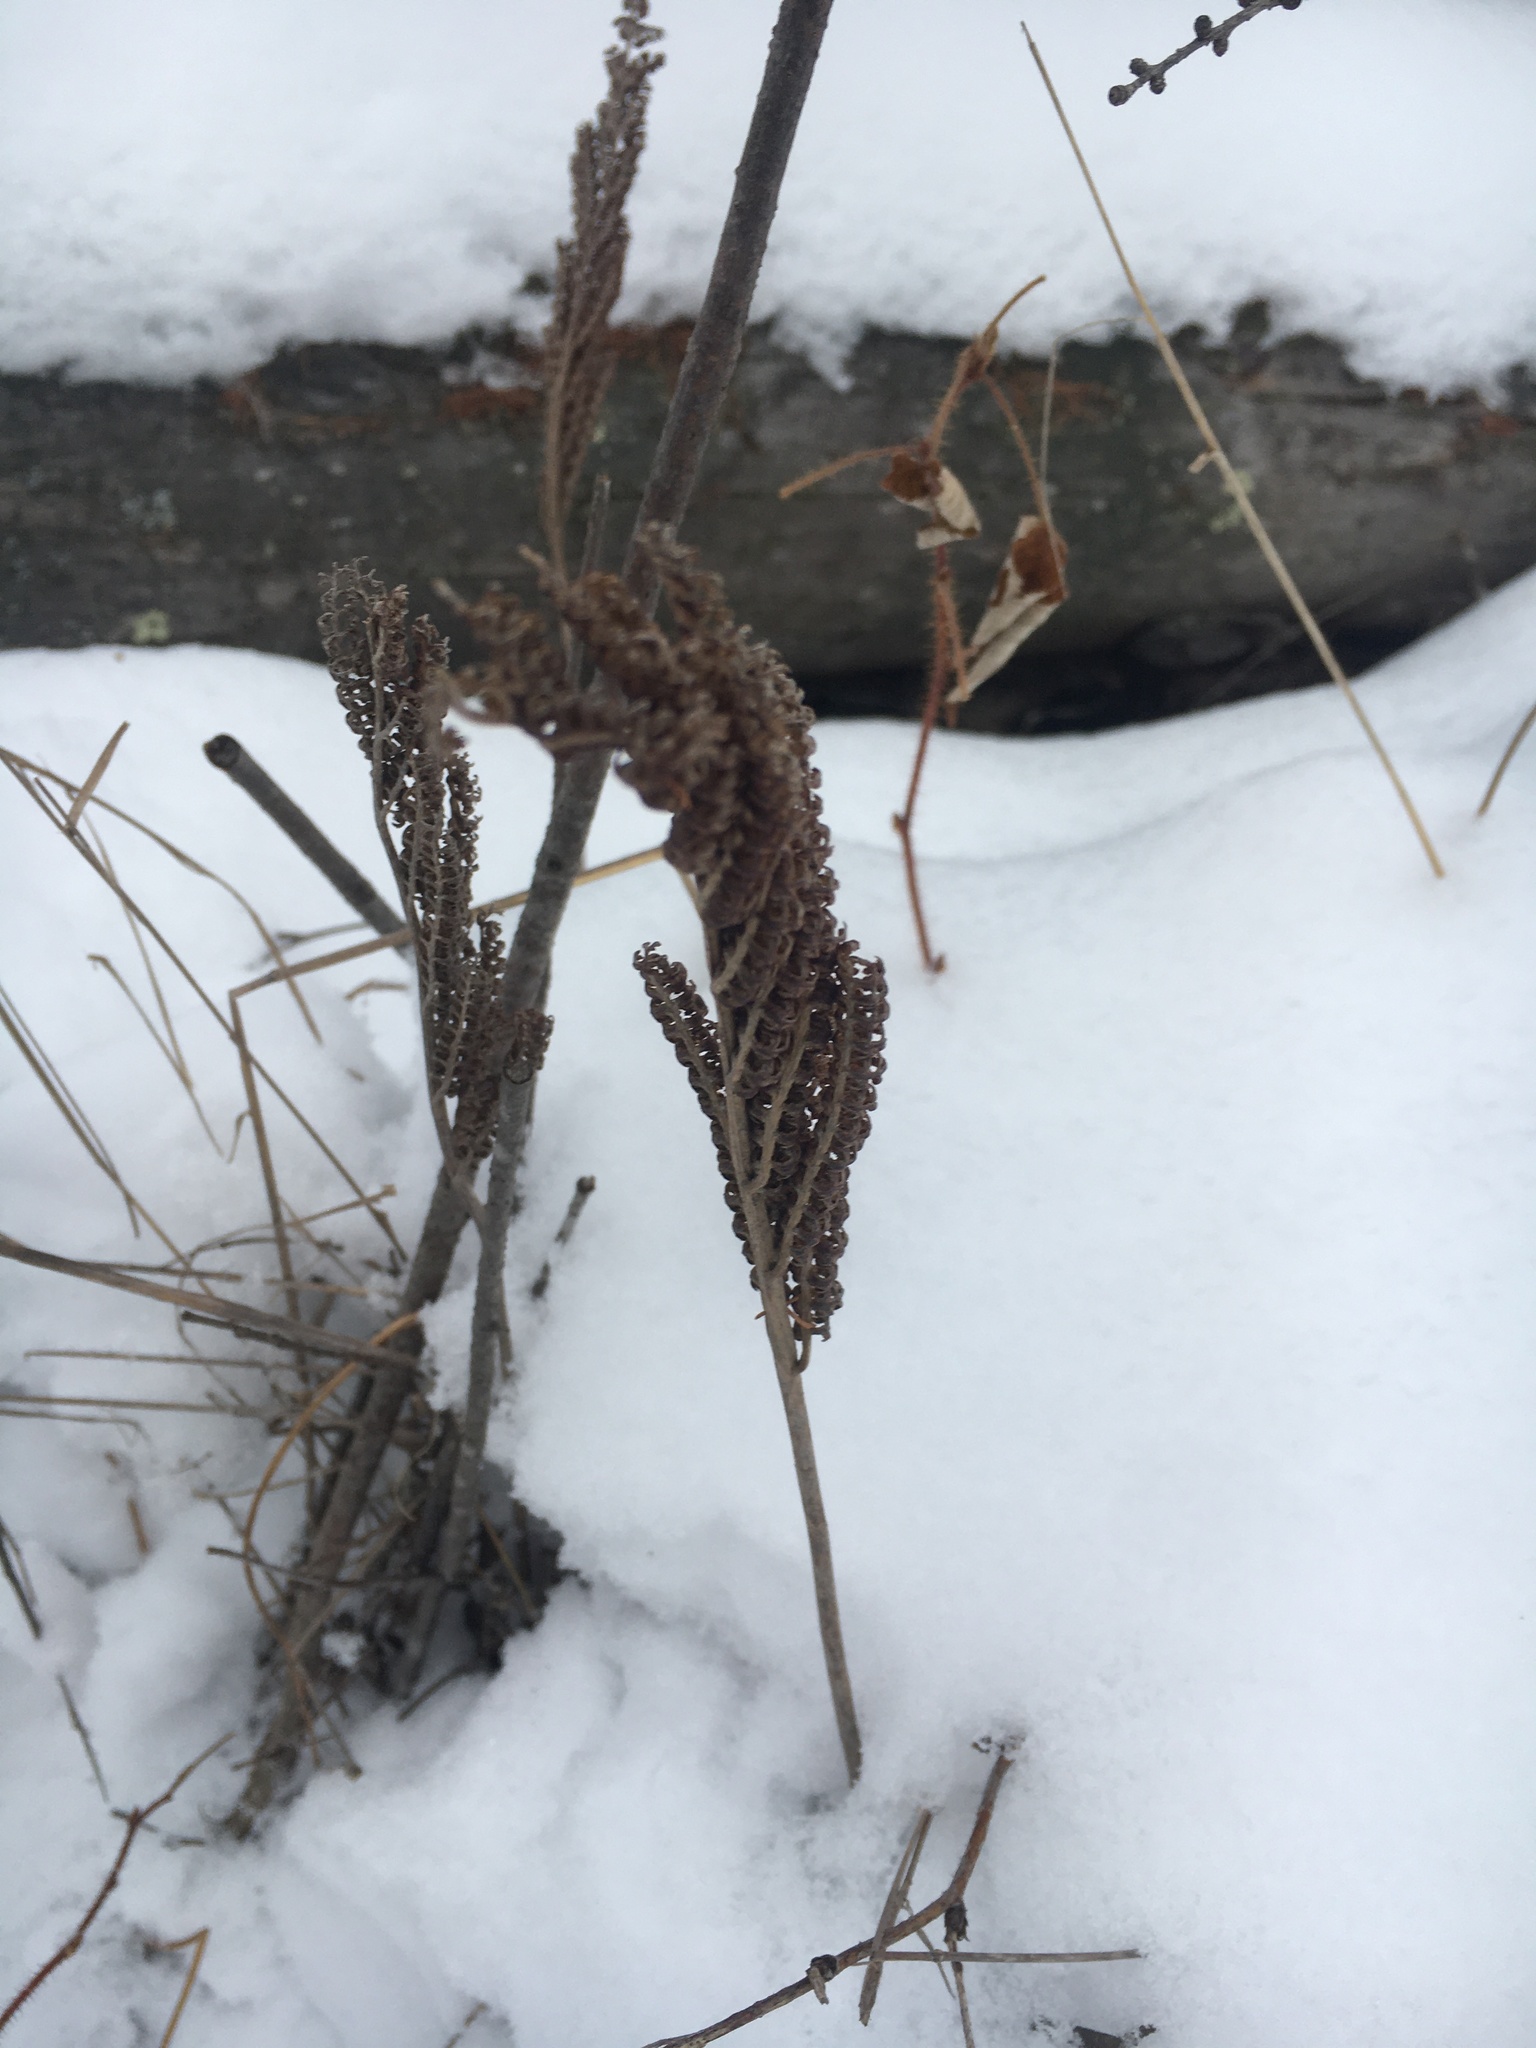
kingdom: Plantae
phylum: Tracheophyta
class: Polypodiopsida
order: Polypodiales
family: Onocleaceae
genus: Onoclea
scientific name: Onoclea sensibilis
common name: Sensitive fern
